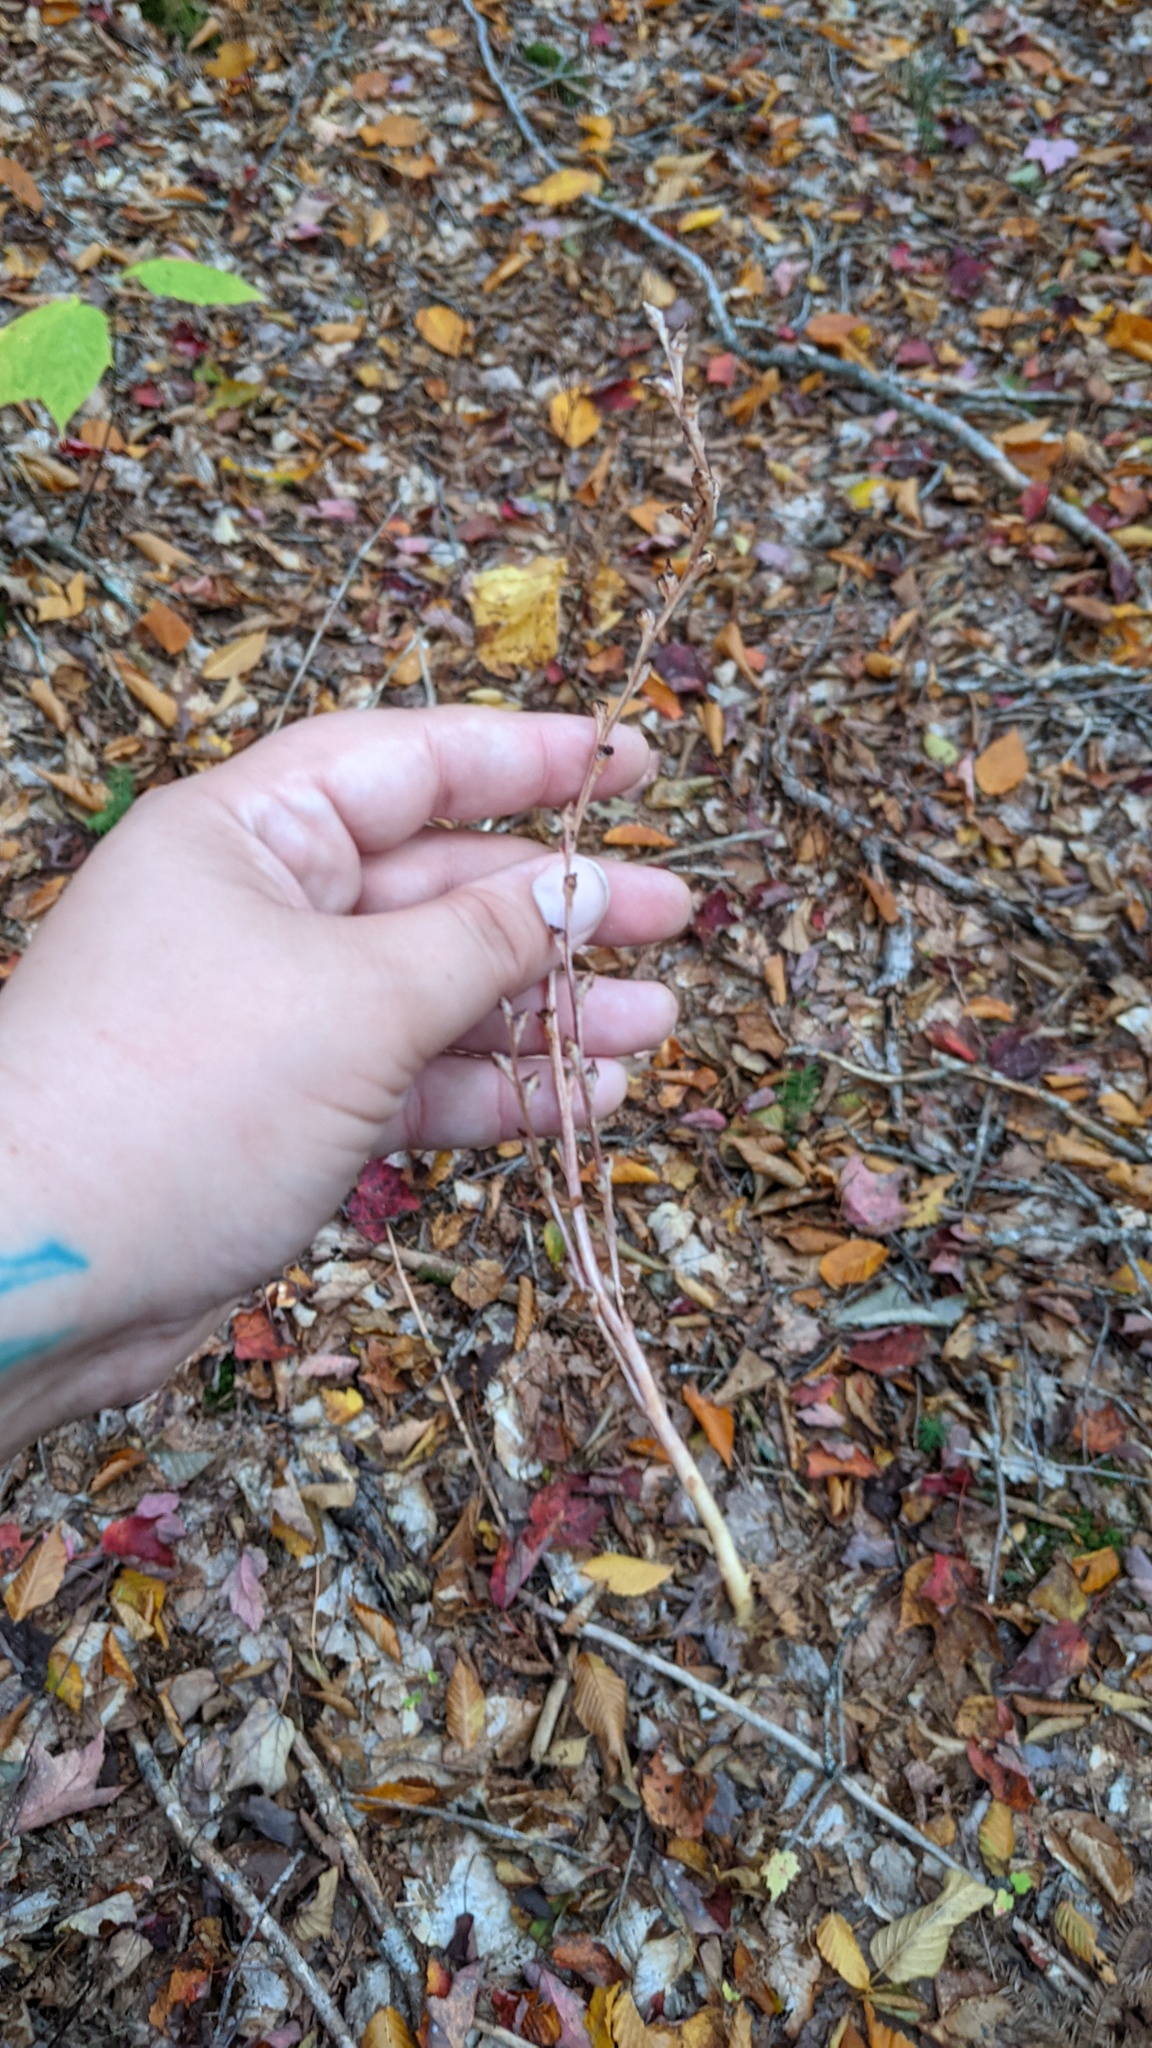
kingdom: Plantae
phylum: Tracheophyta
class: Magnoliopsida
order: Lamiales
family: Orobanchaceae
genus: Epifagus
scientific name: Epifagus virginiana
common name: Beechdrops
